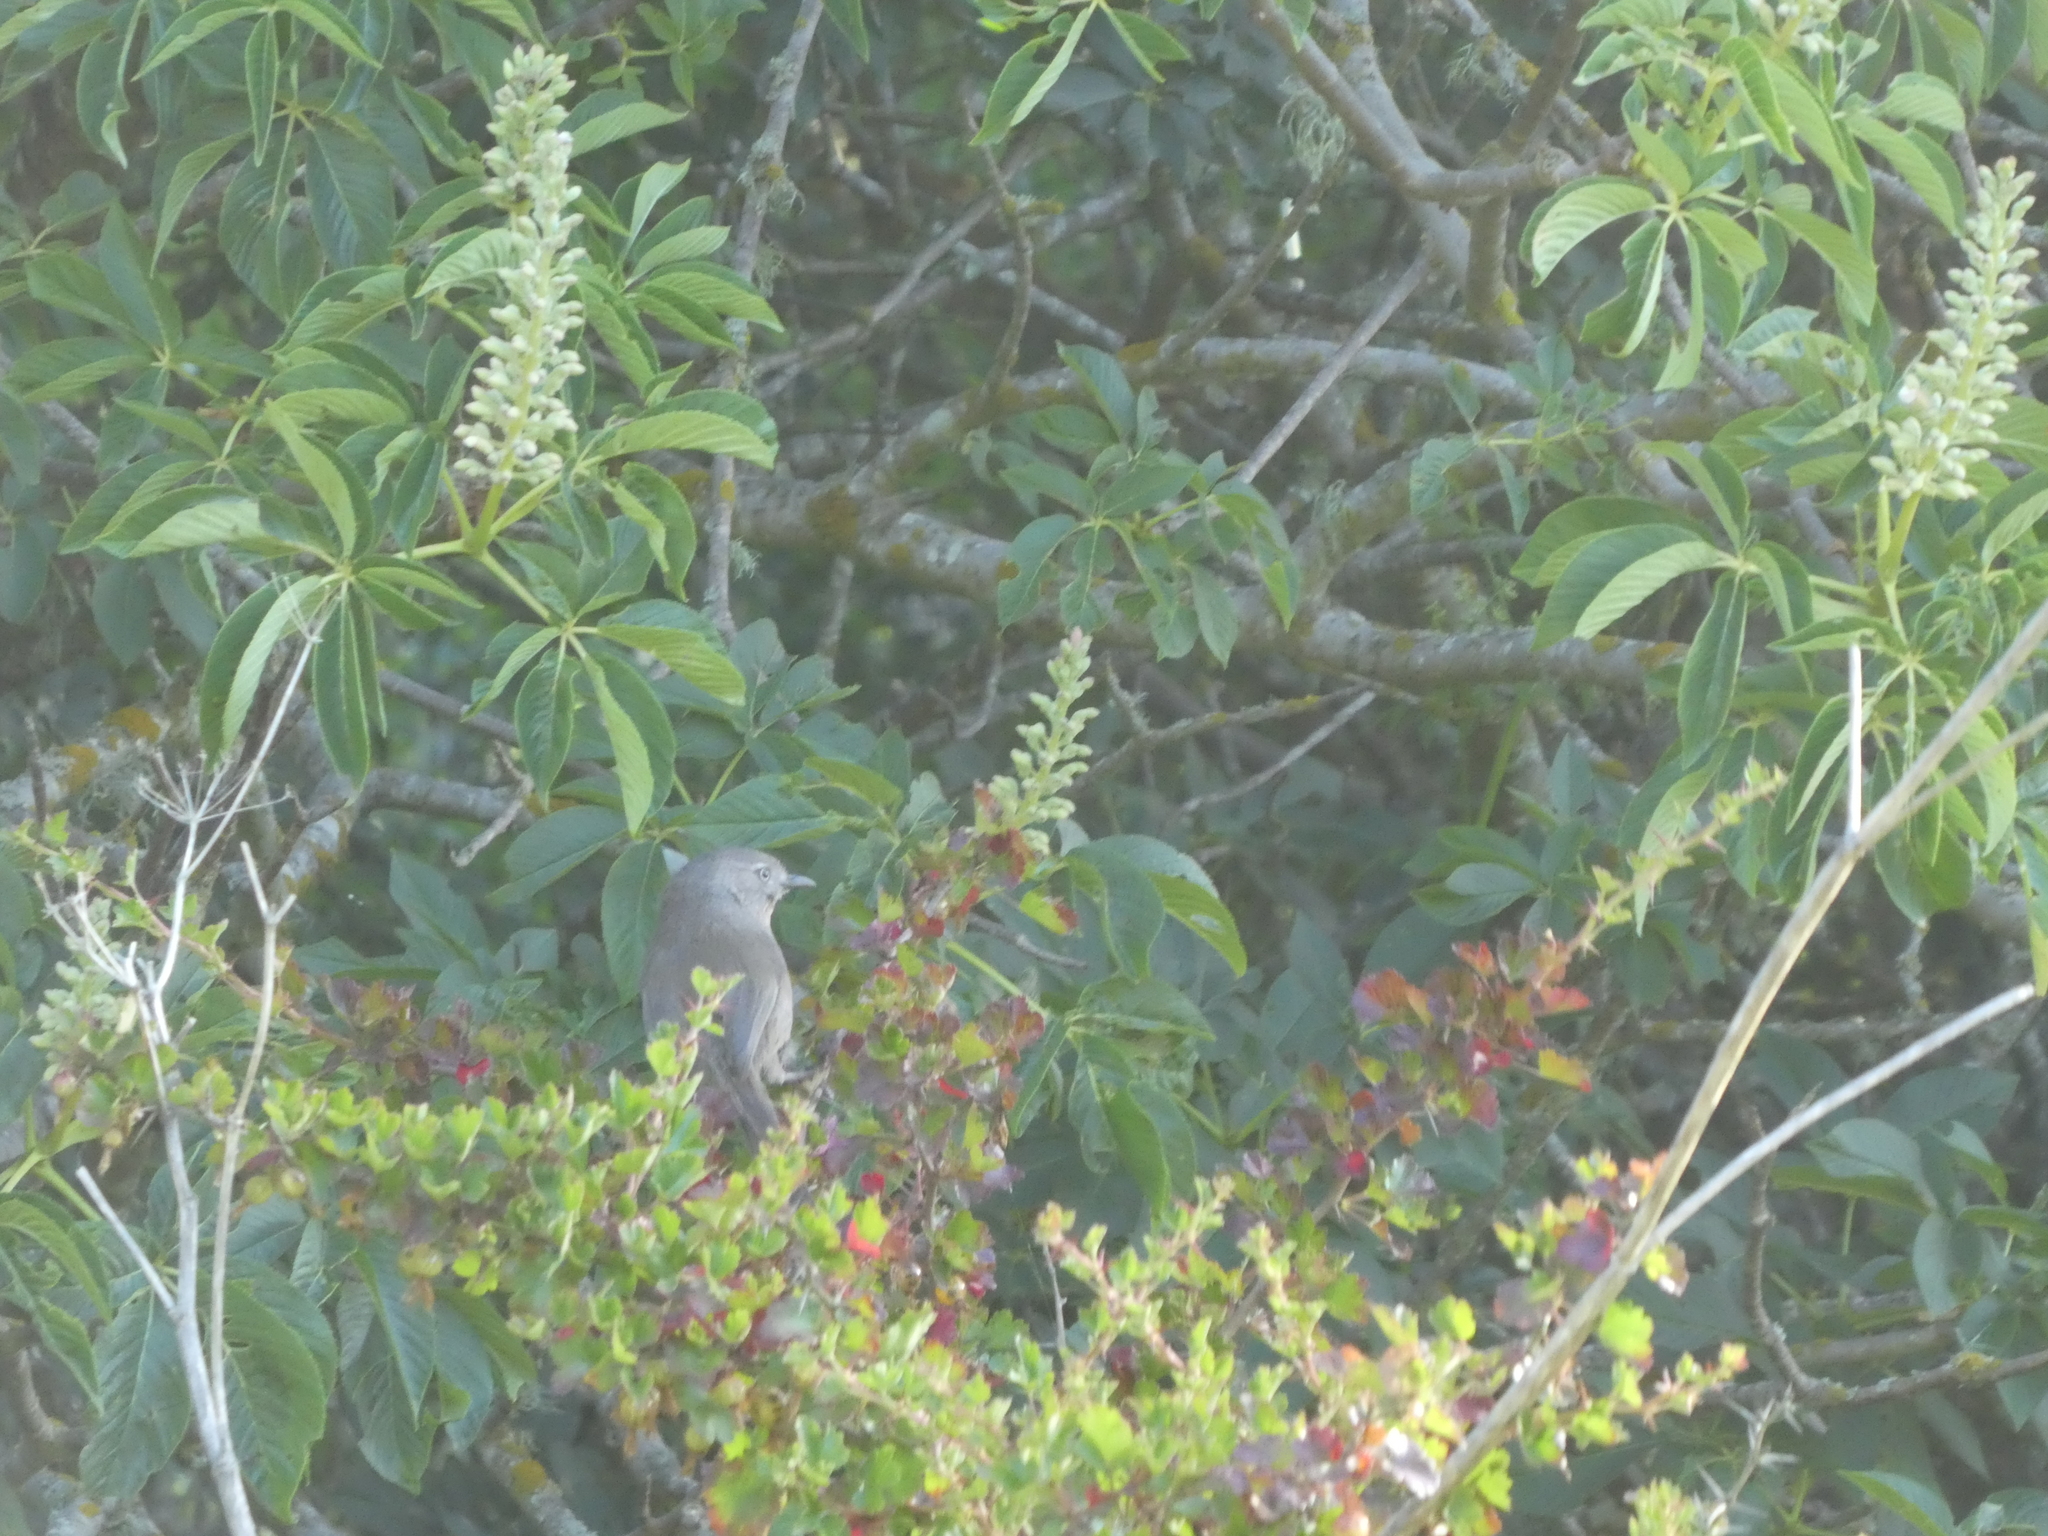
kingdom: Animalia
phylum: Chordata
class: Aves
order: Passeriformes
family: Sylviidae
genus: Chamaea
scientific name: Chamaea fasciata
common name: Wrentit
